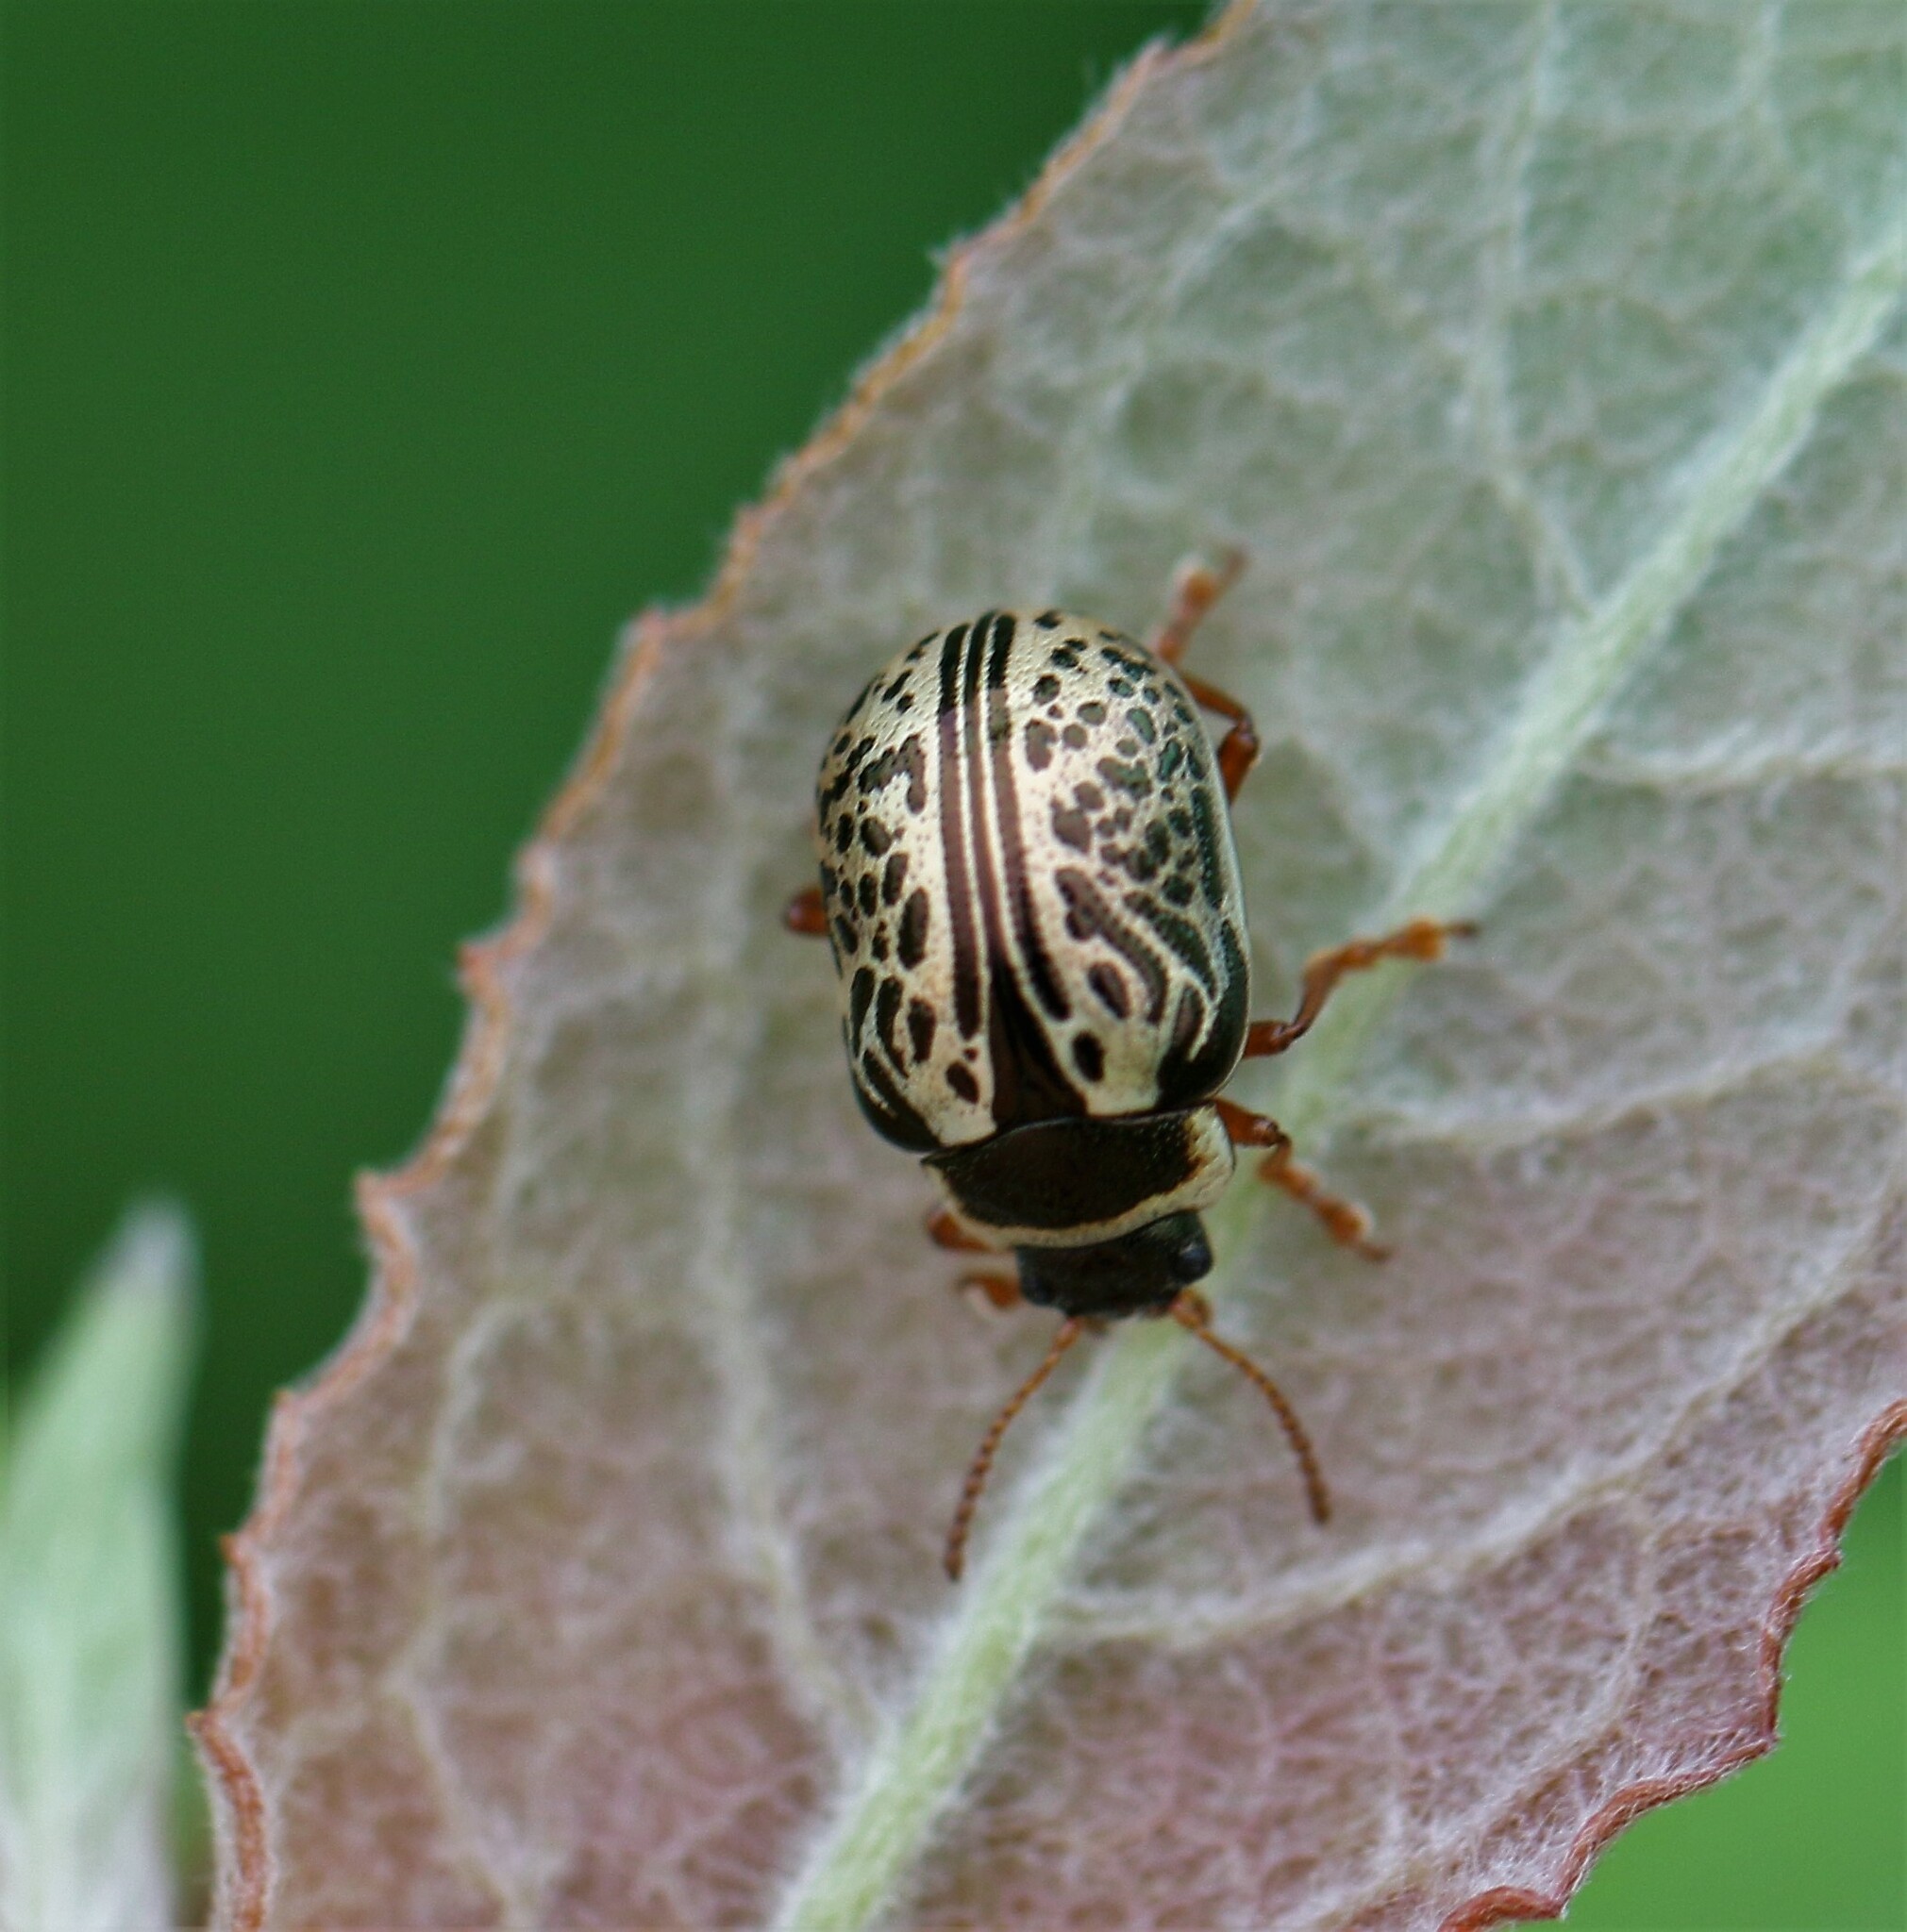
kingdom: Animalia
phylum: Arthropoda
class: Insecta
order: Coleoptera
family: Chrysomelidae
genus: Calligrapha
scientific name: Calligrapha multipunctata
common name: Common willow calligrapher beetle
